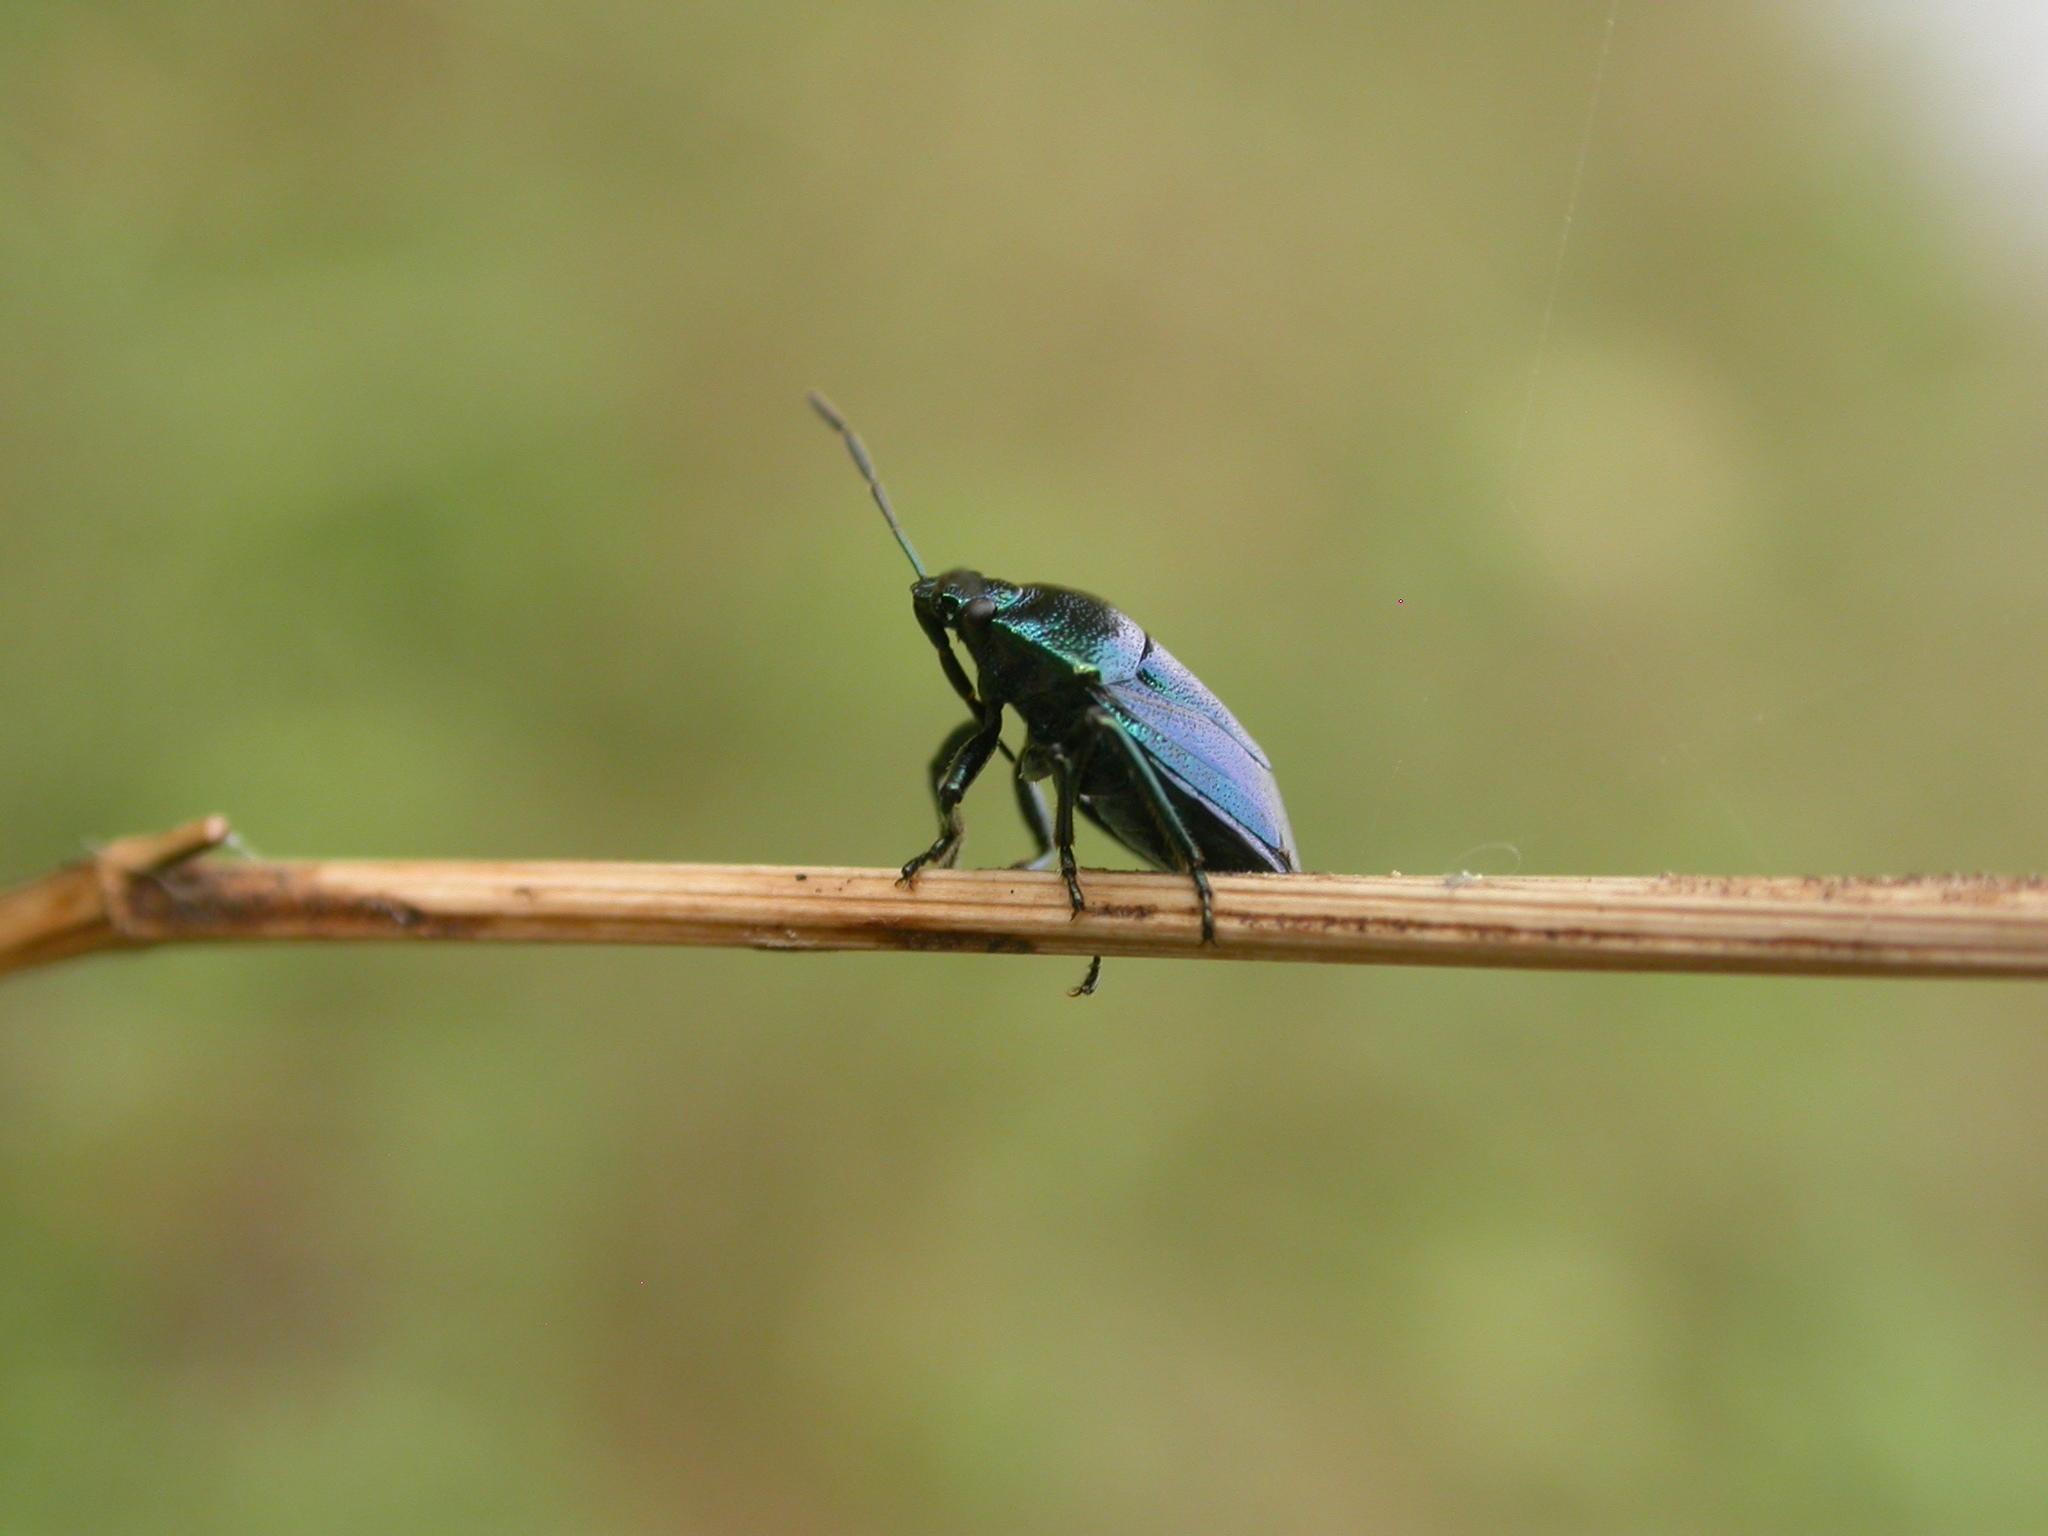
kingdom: Animalia
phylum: Arthropoda
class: Insecta
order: Hemiptera
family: Pentatomidae
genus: Zicrona
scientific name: Zicrona caerulea
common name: Blue shieldbug
